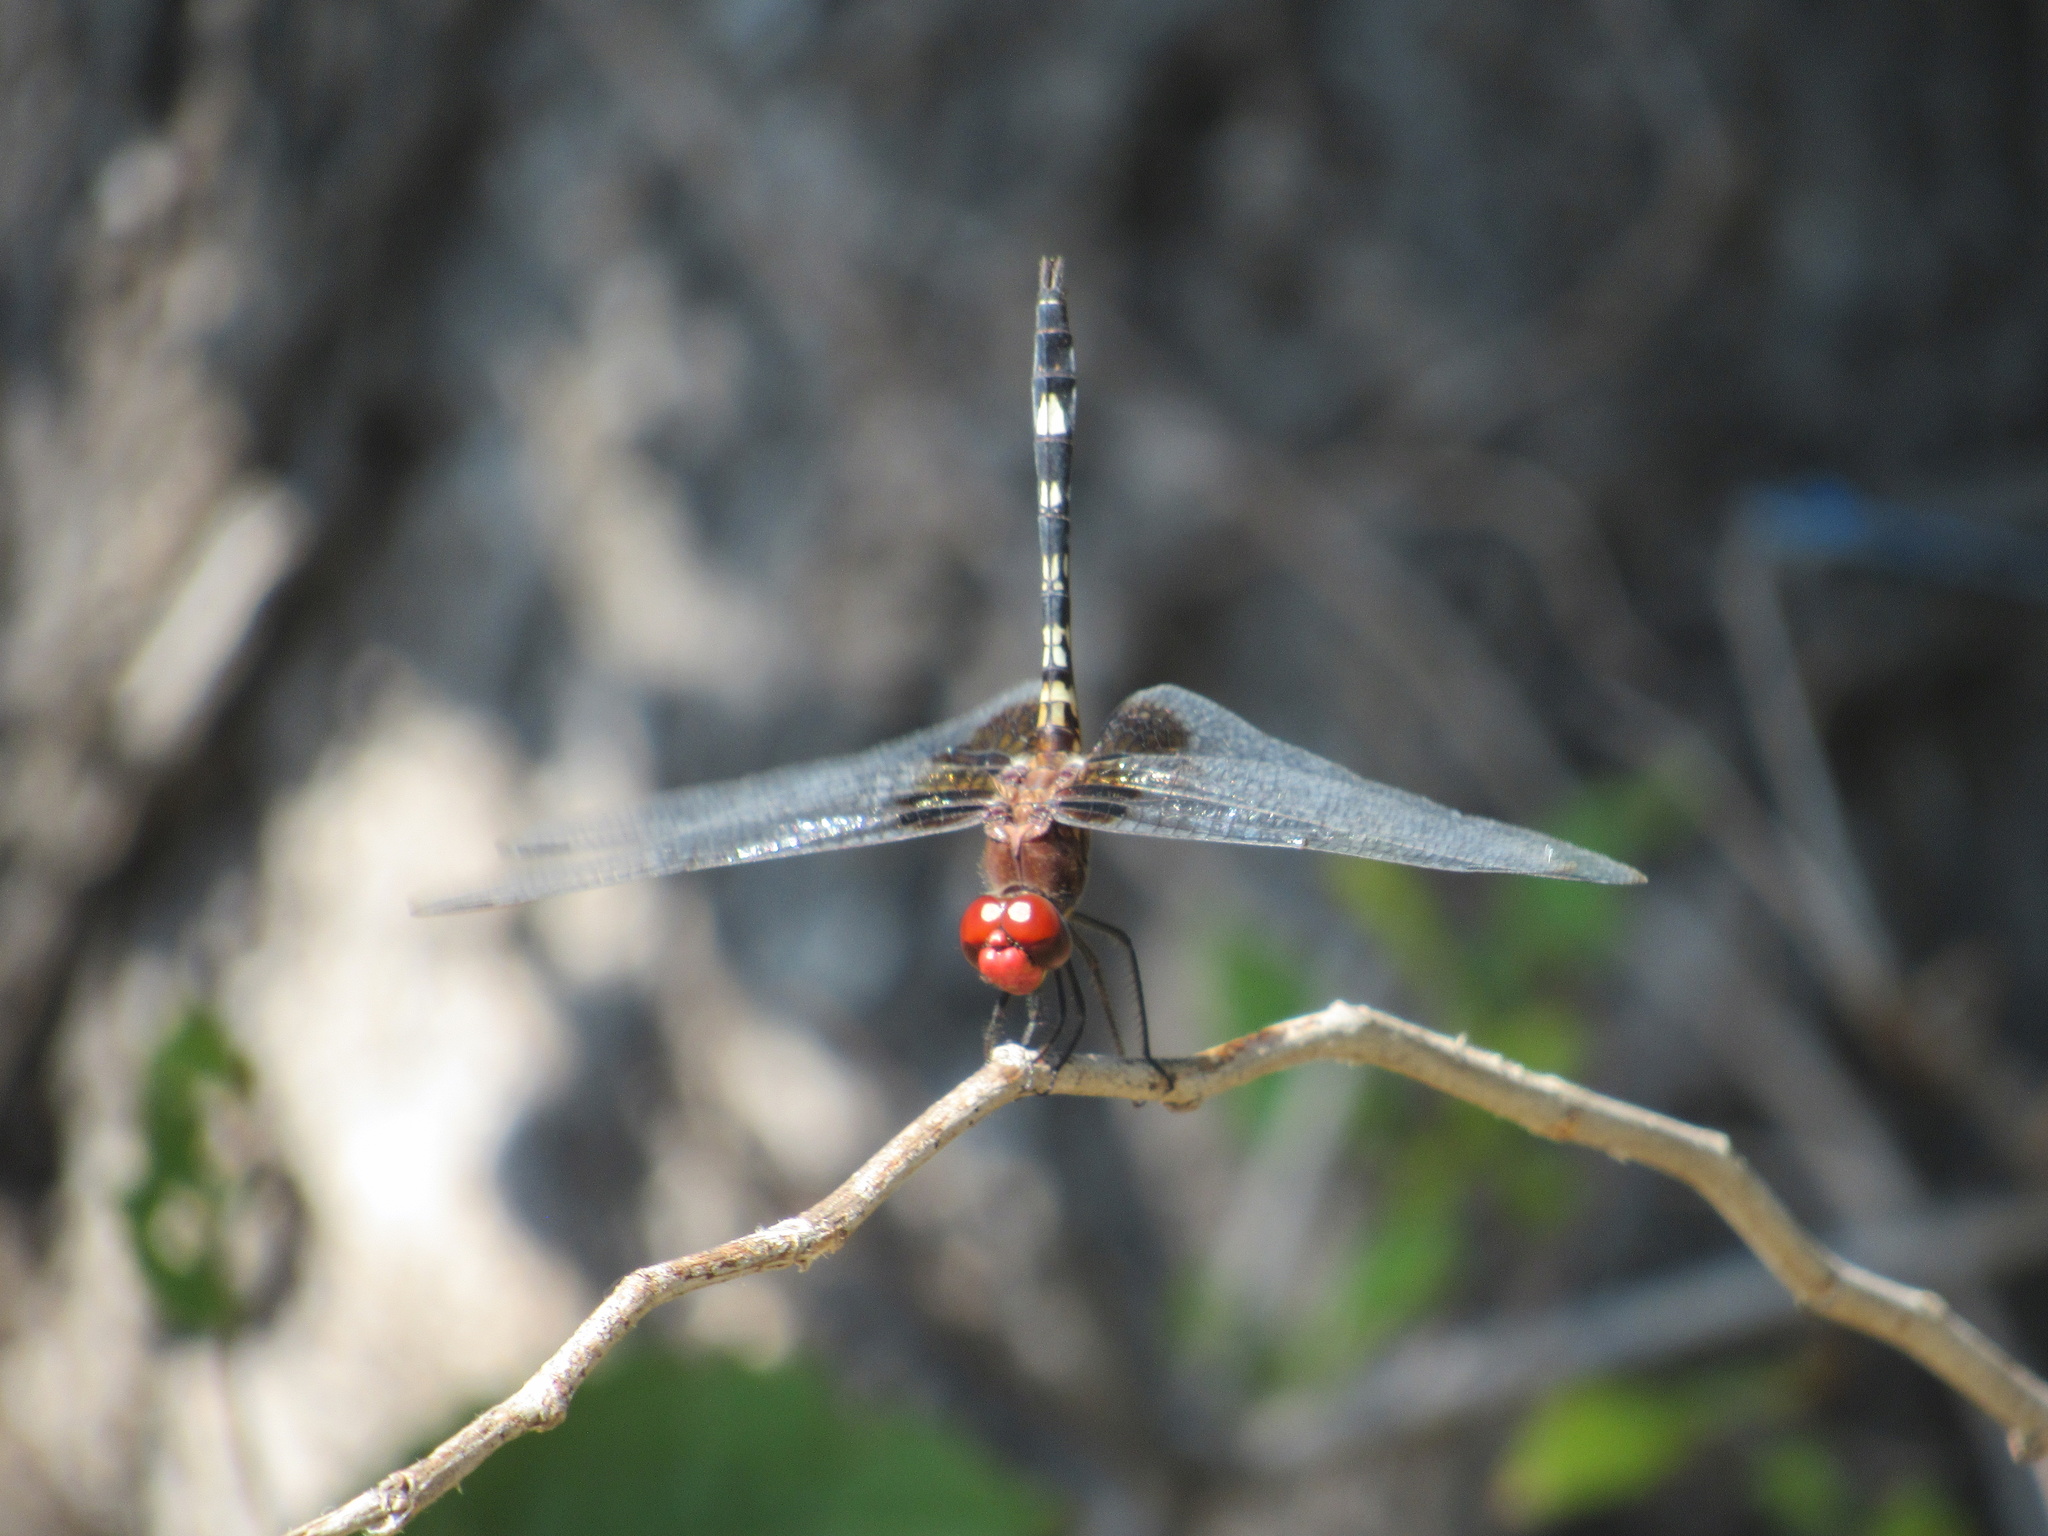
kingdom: Animalia
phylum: Arthropoda
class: Insecta
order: Odonata
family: Libellulidae
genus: Dythemis
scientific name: Dythemis fugax
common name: Checkered setwing
